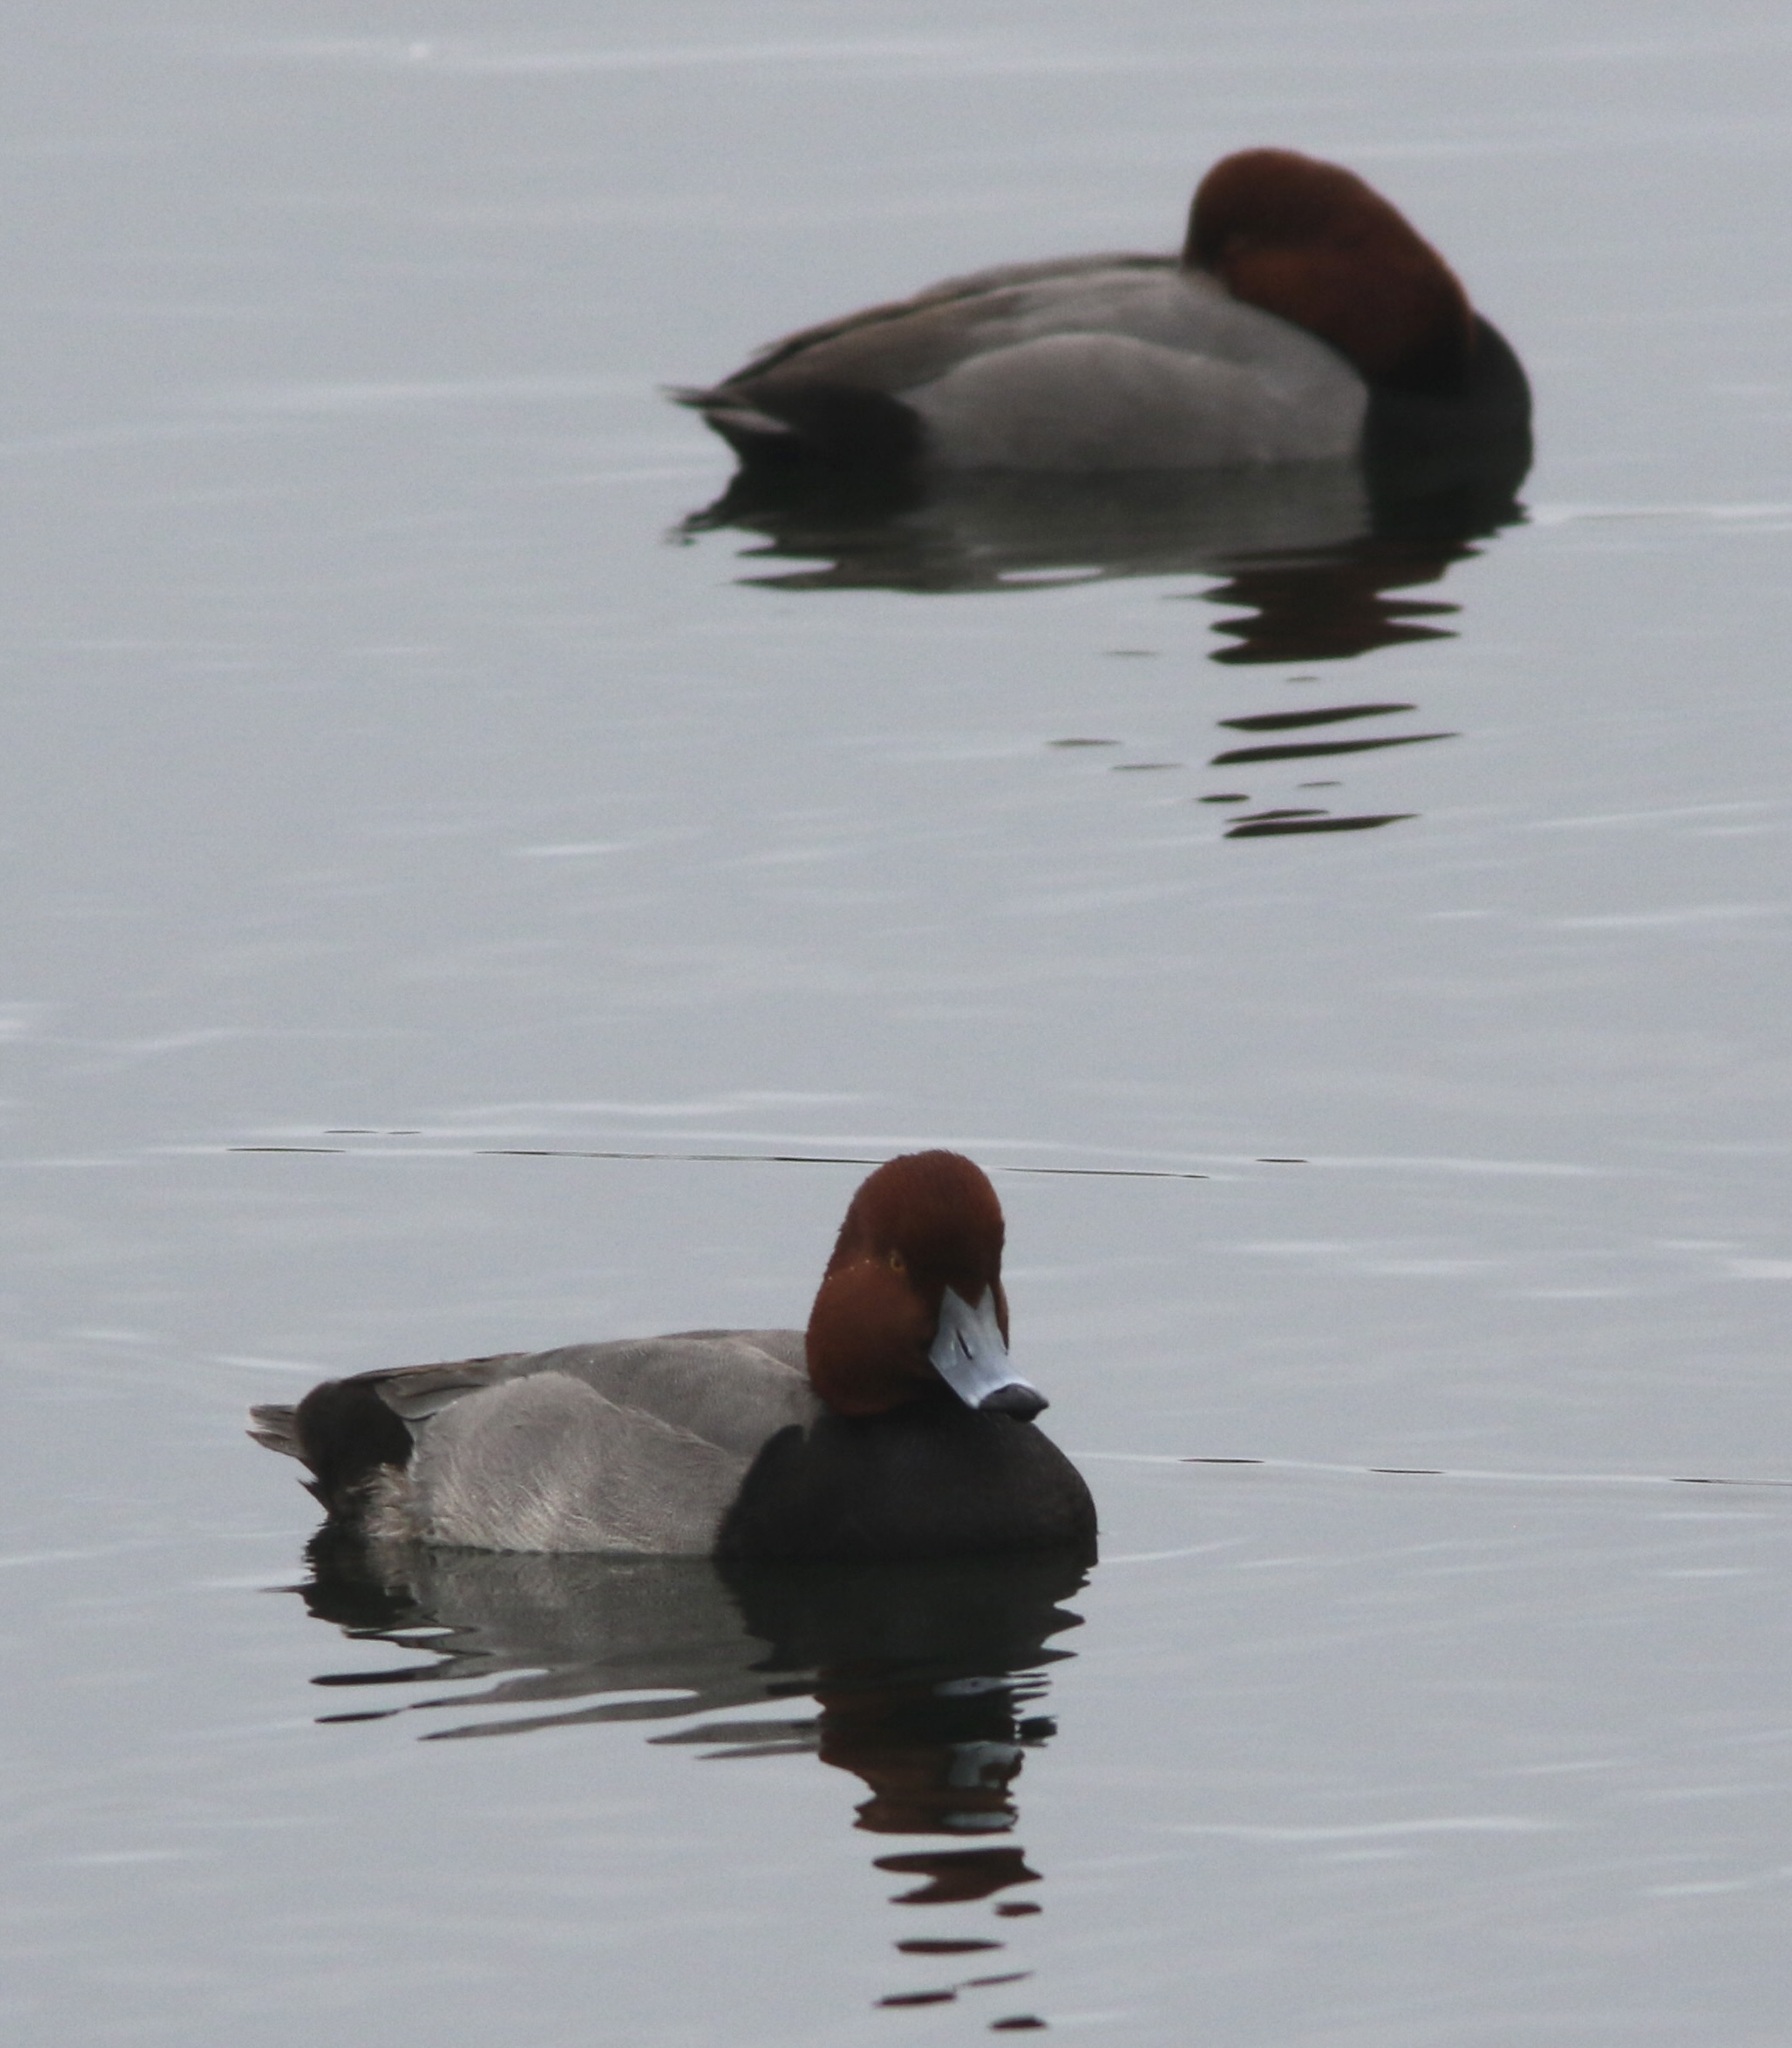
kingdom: Animalia
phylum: Chordata
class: Aves
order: Anseriformes
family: Anatidae
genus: Aythya
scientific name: Aythya americana
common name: Redhead
